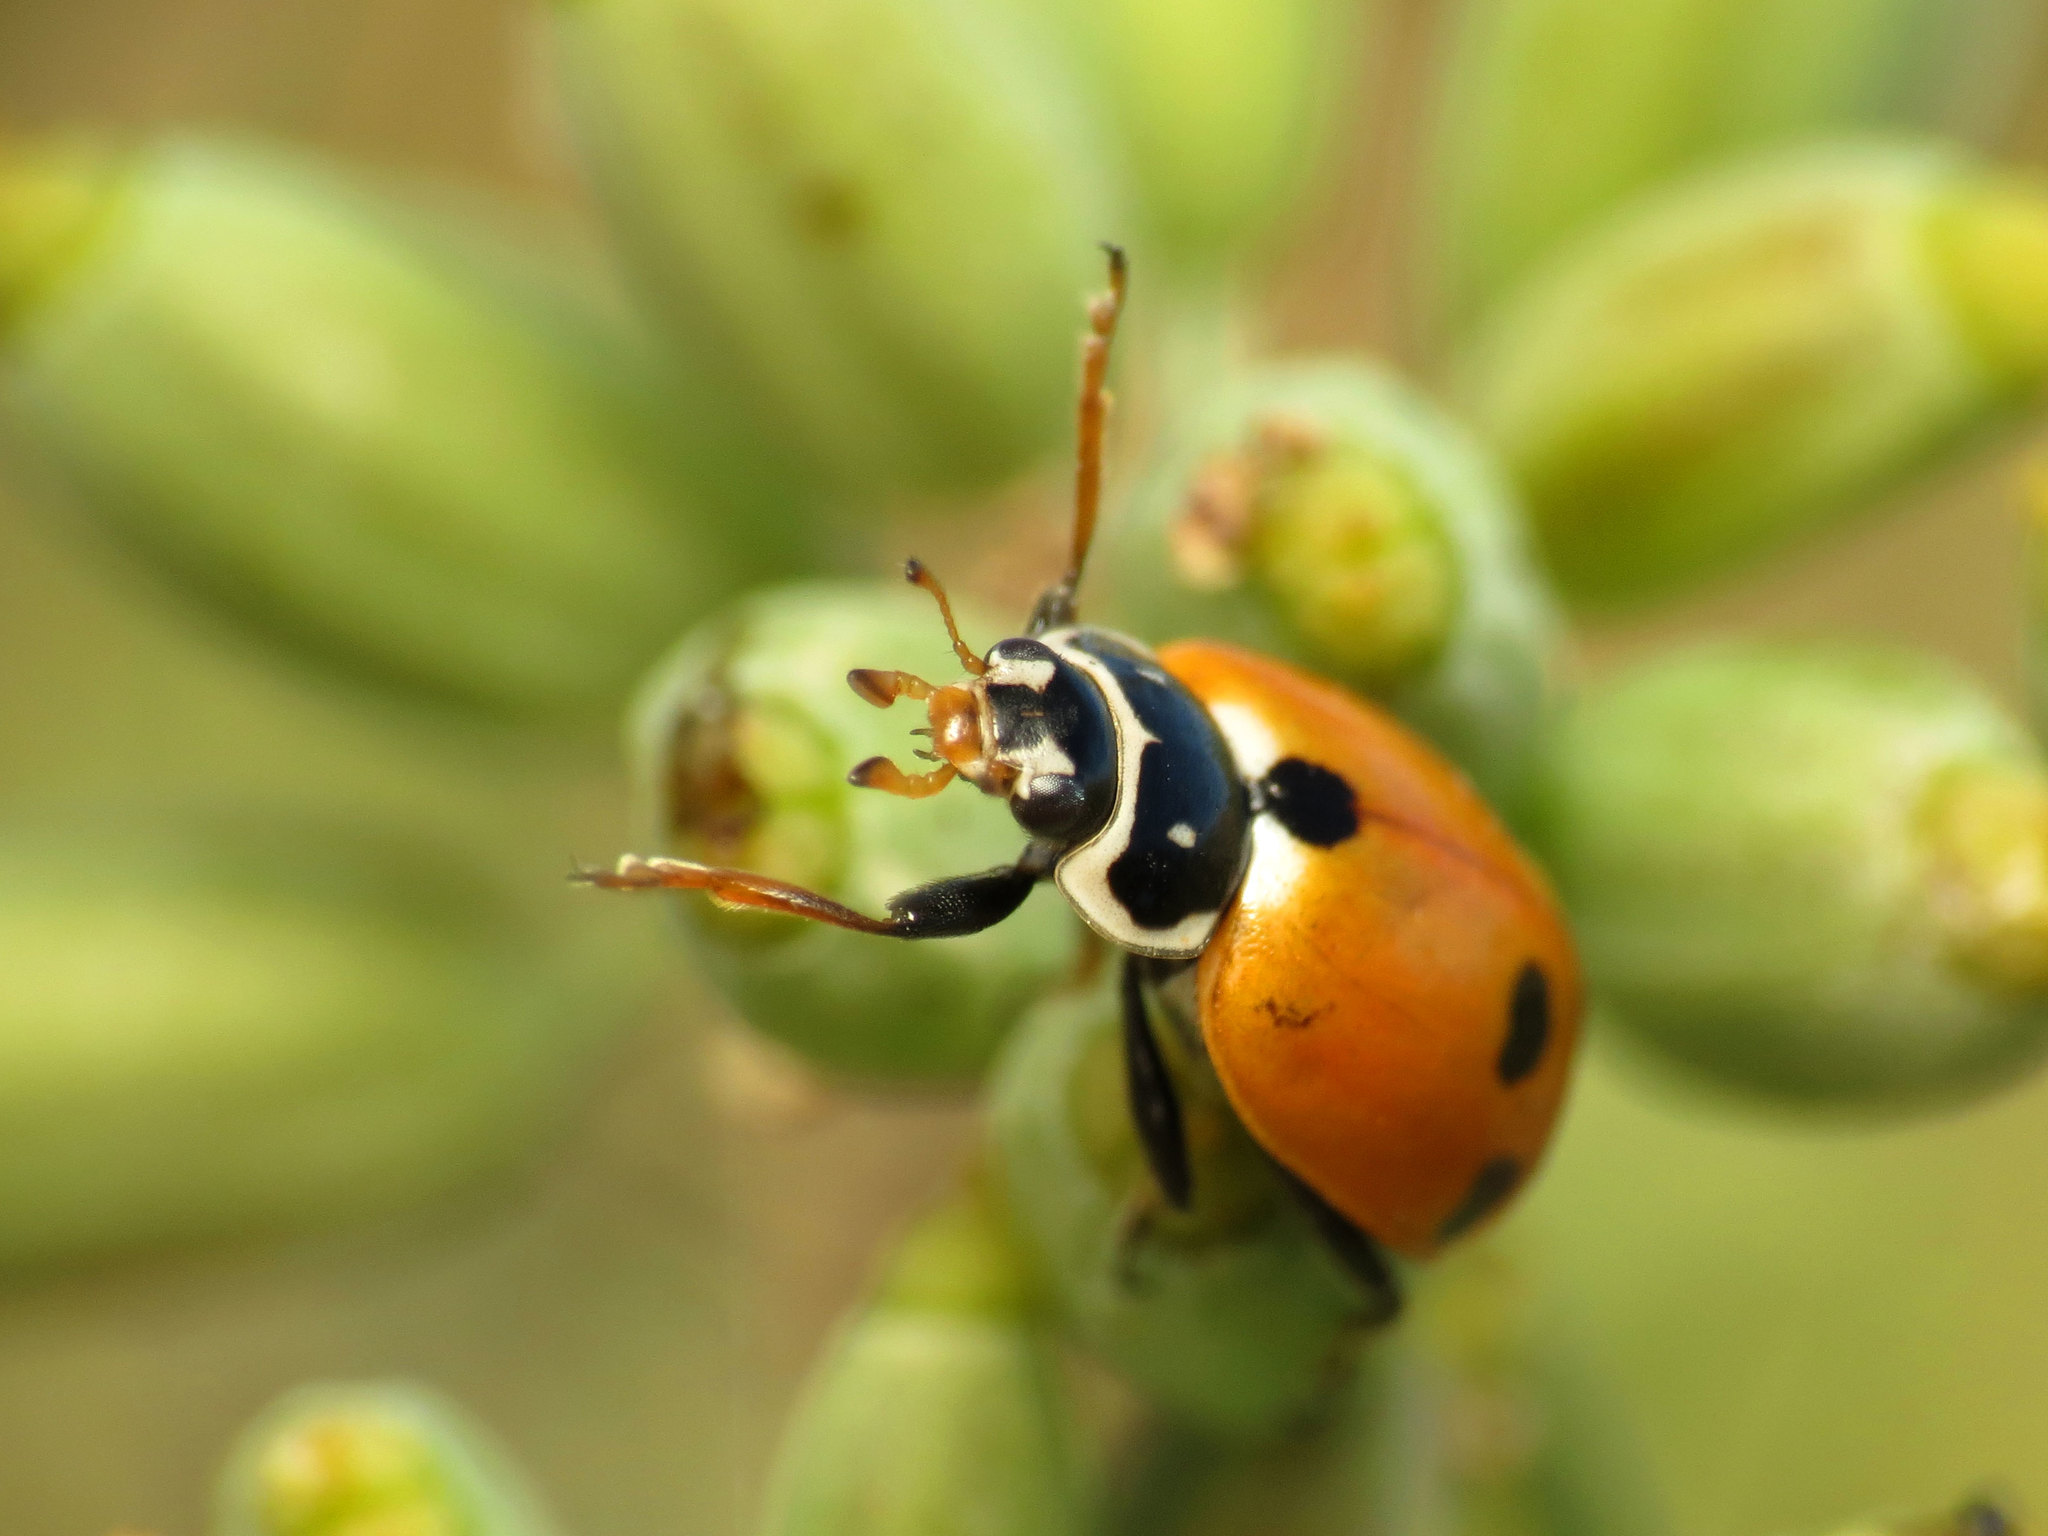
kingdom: Animalia
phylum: Arthropoda
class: Insecta
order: Coleoptera
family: Coccinellidae
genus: Hippodamia
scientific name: Hippodamia variegata
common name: Ladybird beetle
